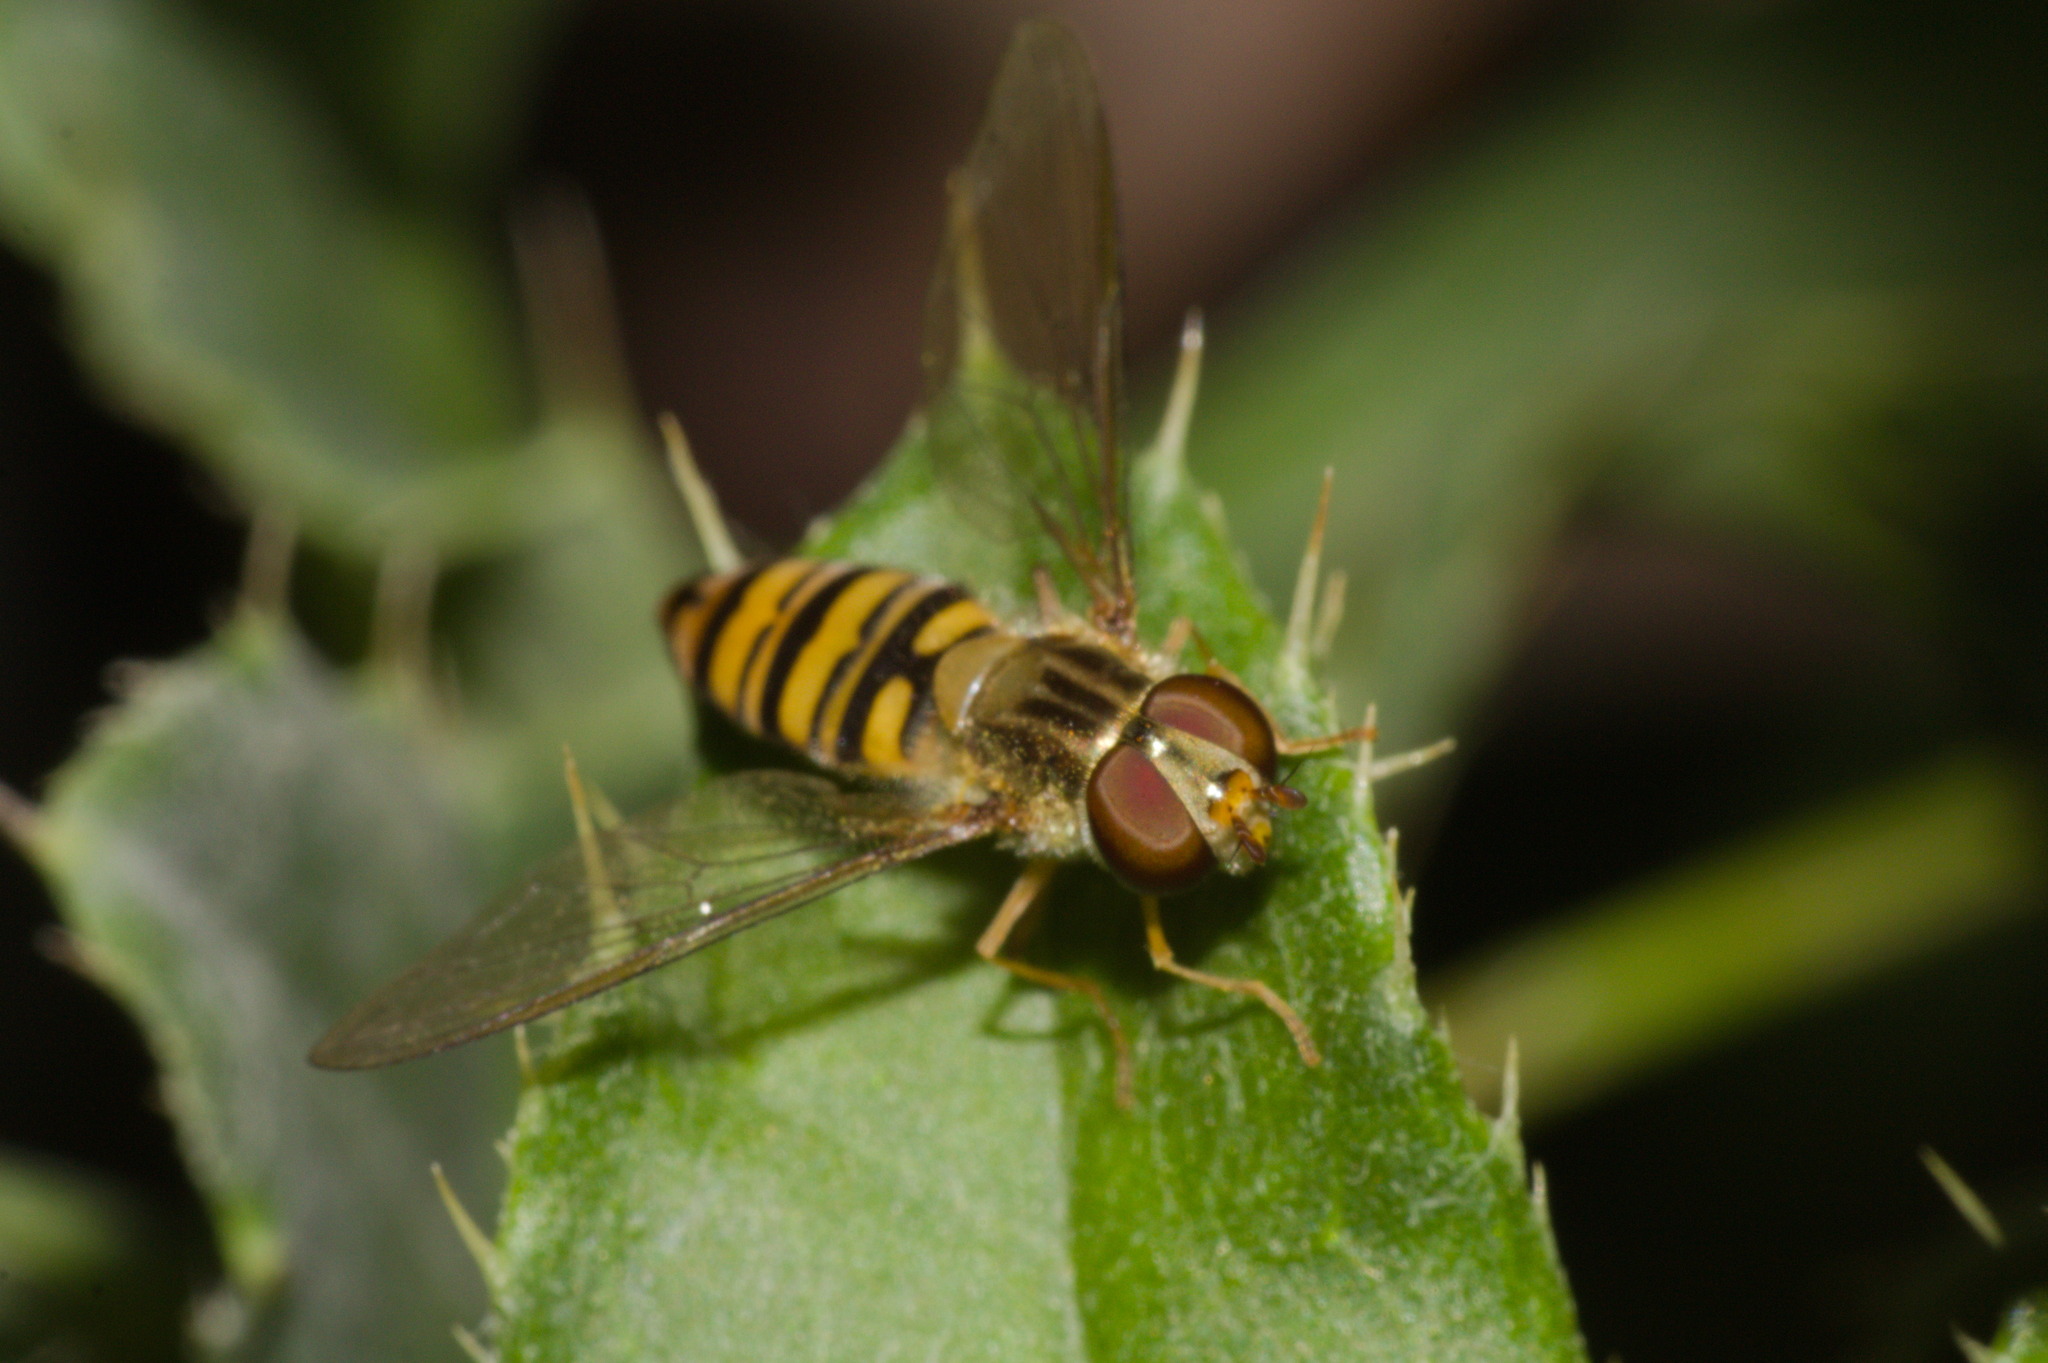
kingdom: Animalia
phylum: Arthropoda
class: Insecta
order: Diptera
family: Syrphidae
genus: Episyrphus
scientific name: Episyrphus balteatus
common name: Marmalade hoverfly
